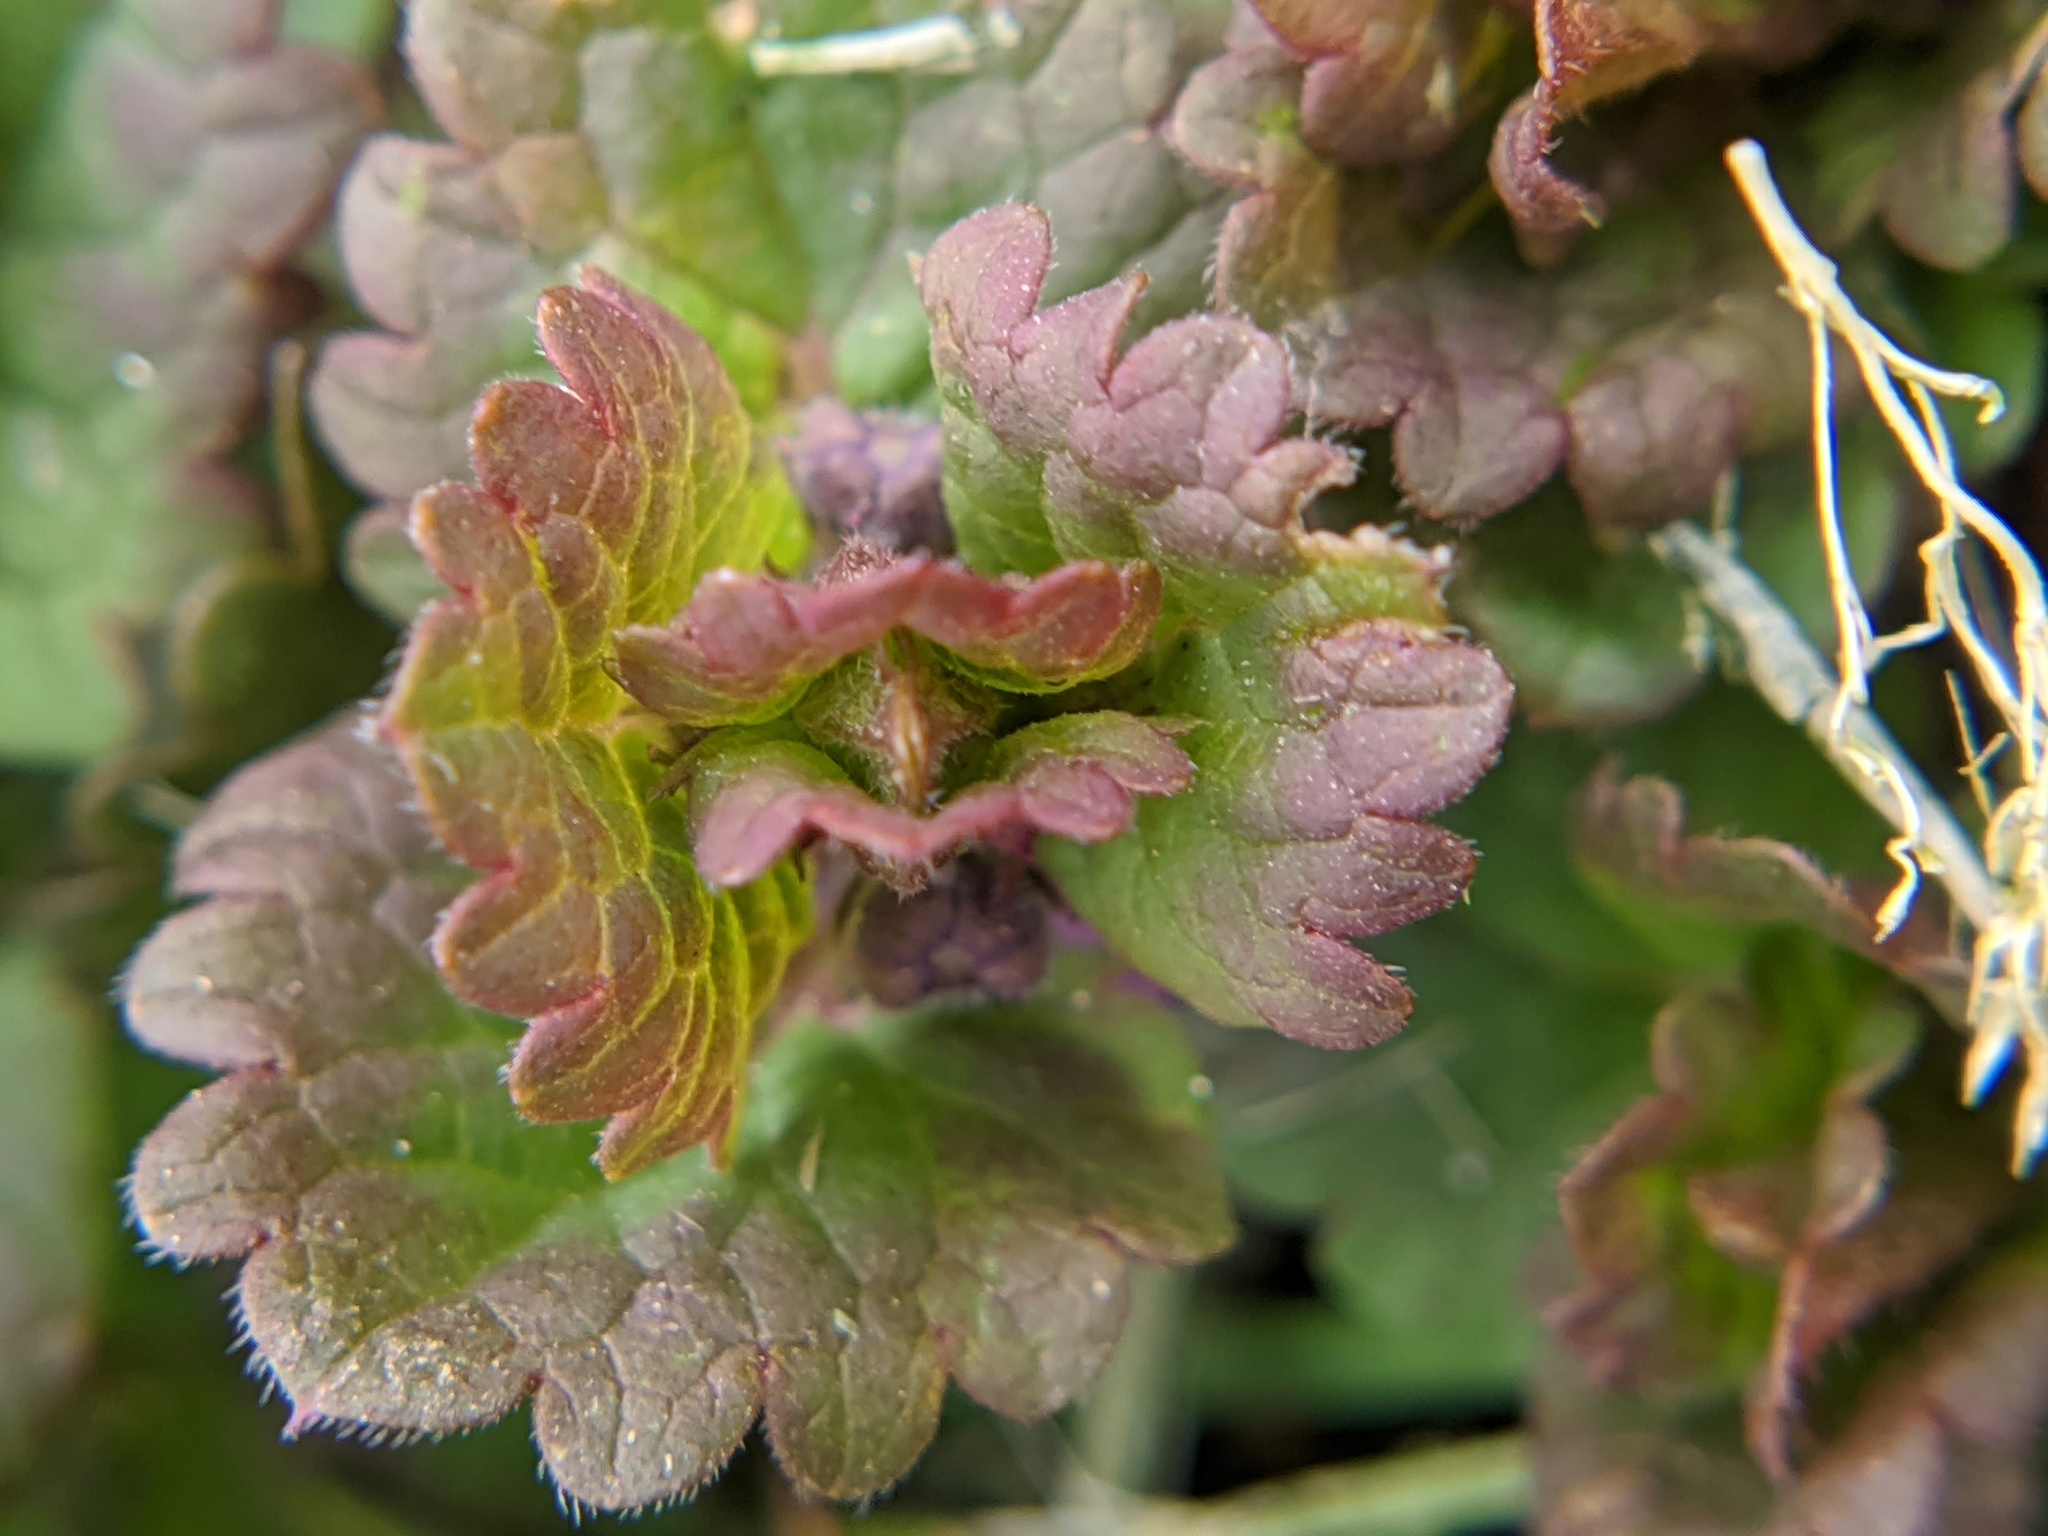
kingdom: Plantae
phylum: Tracheophyta
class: Magnoliopsida
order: Lamiales
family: Lamiaceae
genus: Glechoma
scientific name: Glechoma hederacea
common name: Ground ivy
